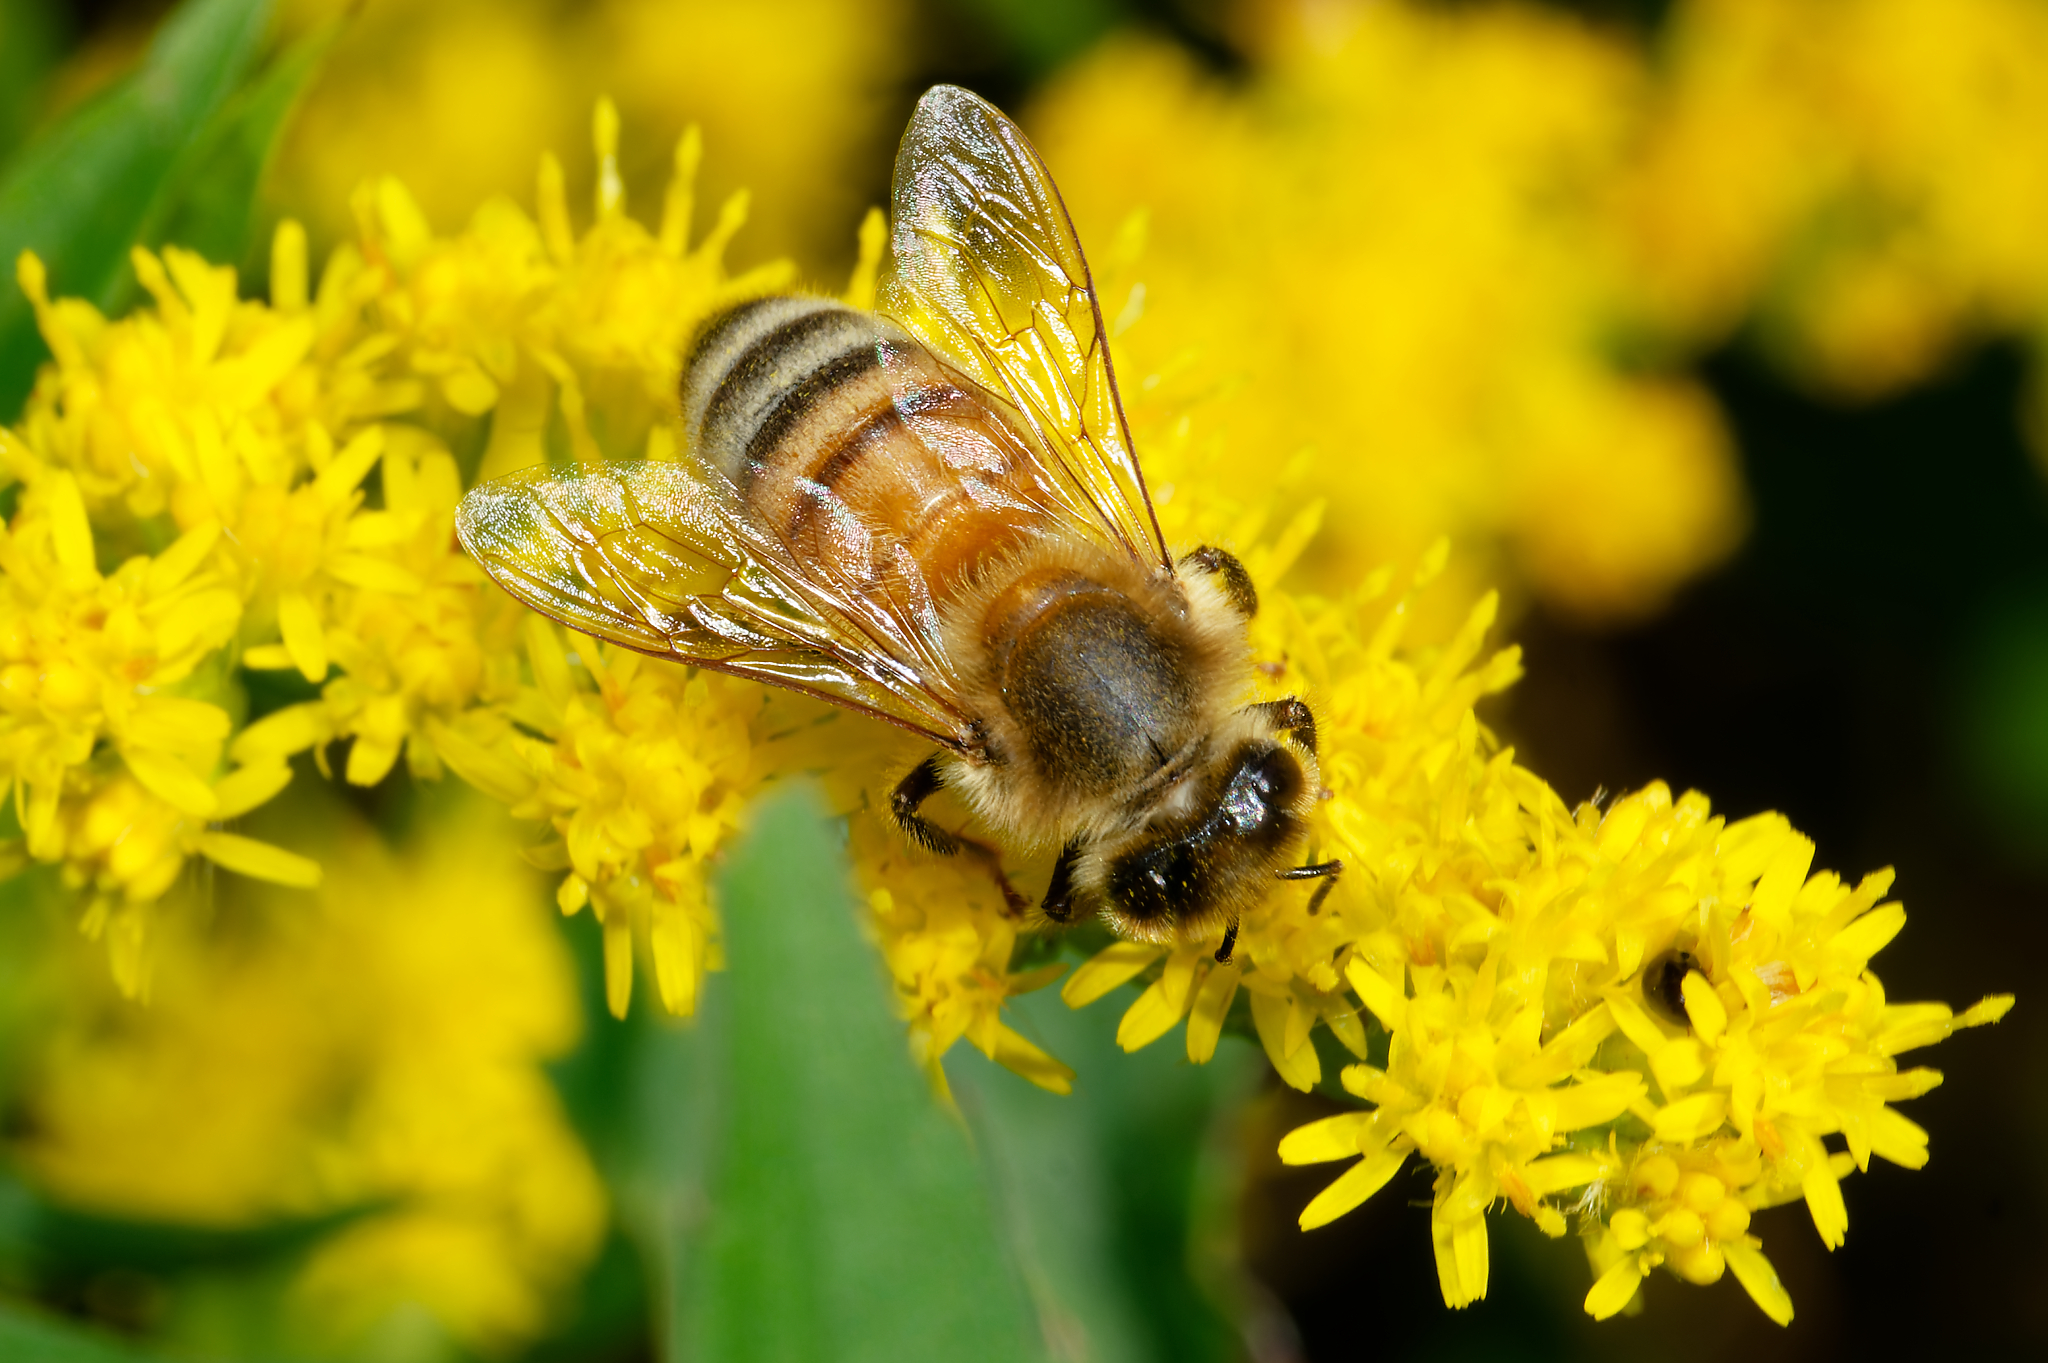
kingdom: Animalia
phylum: Arthropoda
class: Insecta
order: Hymenoptera
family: Apidae
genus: Apis
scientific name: Apis mellifera
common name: Honey bee
